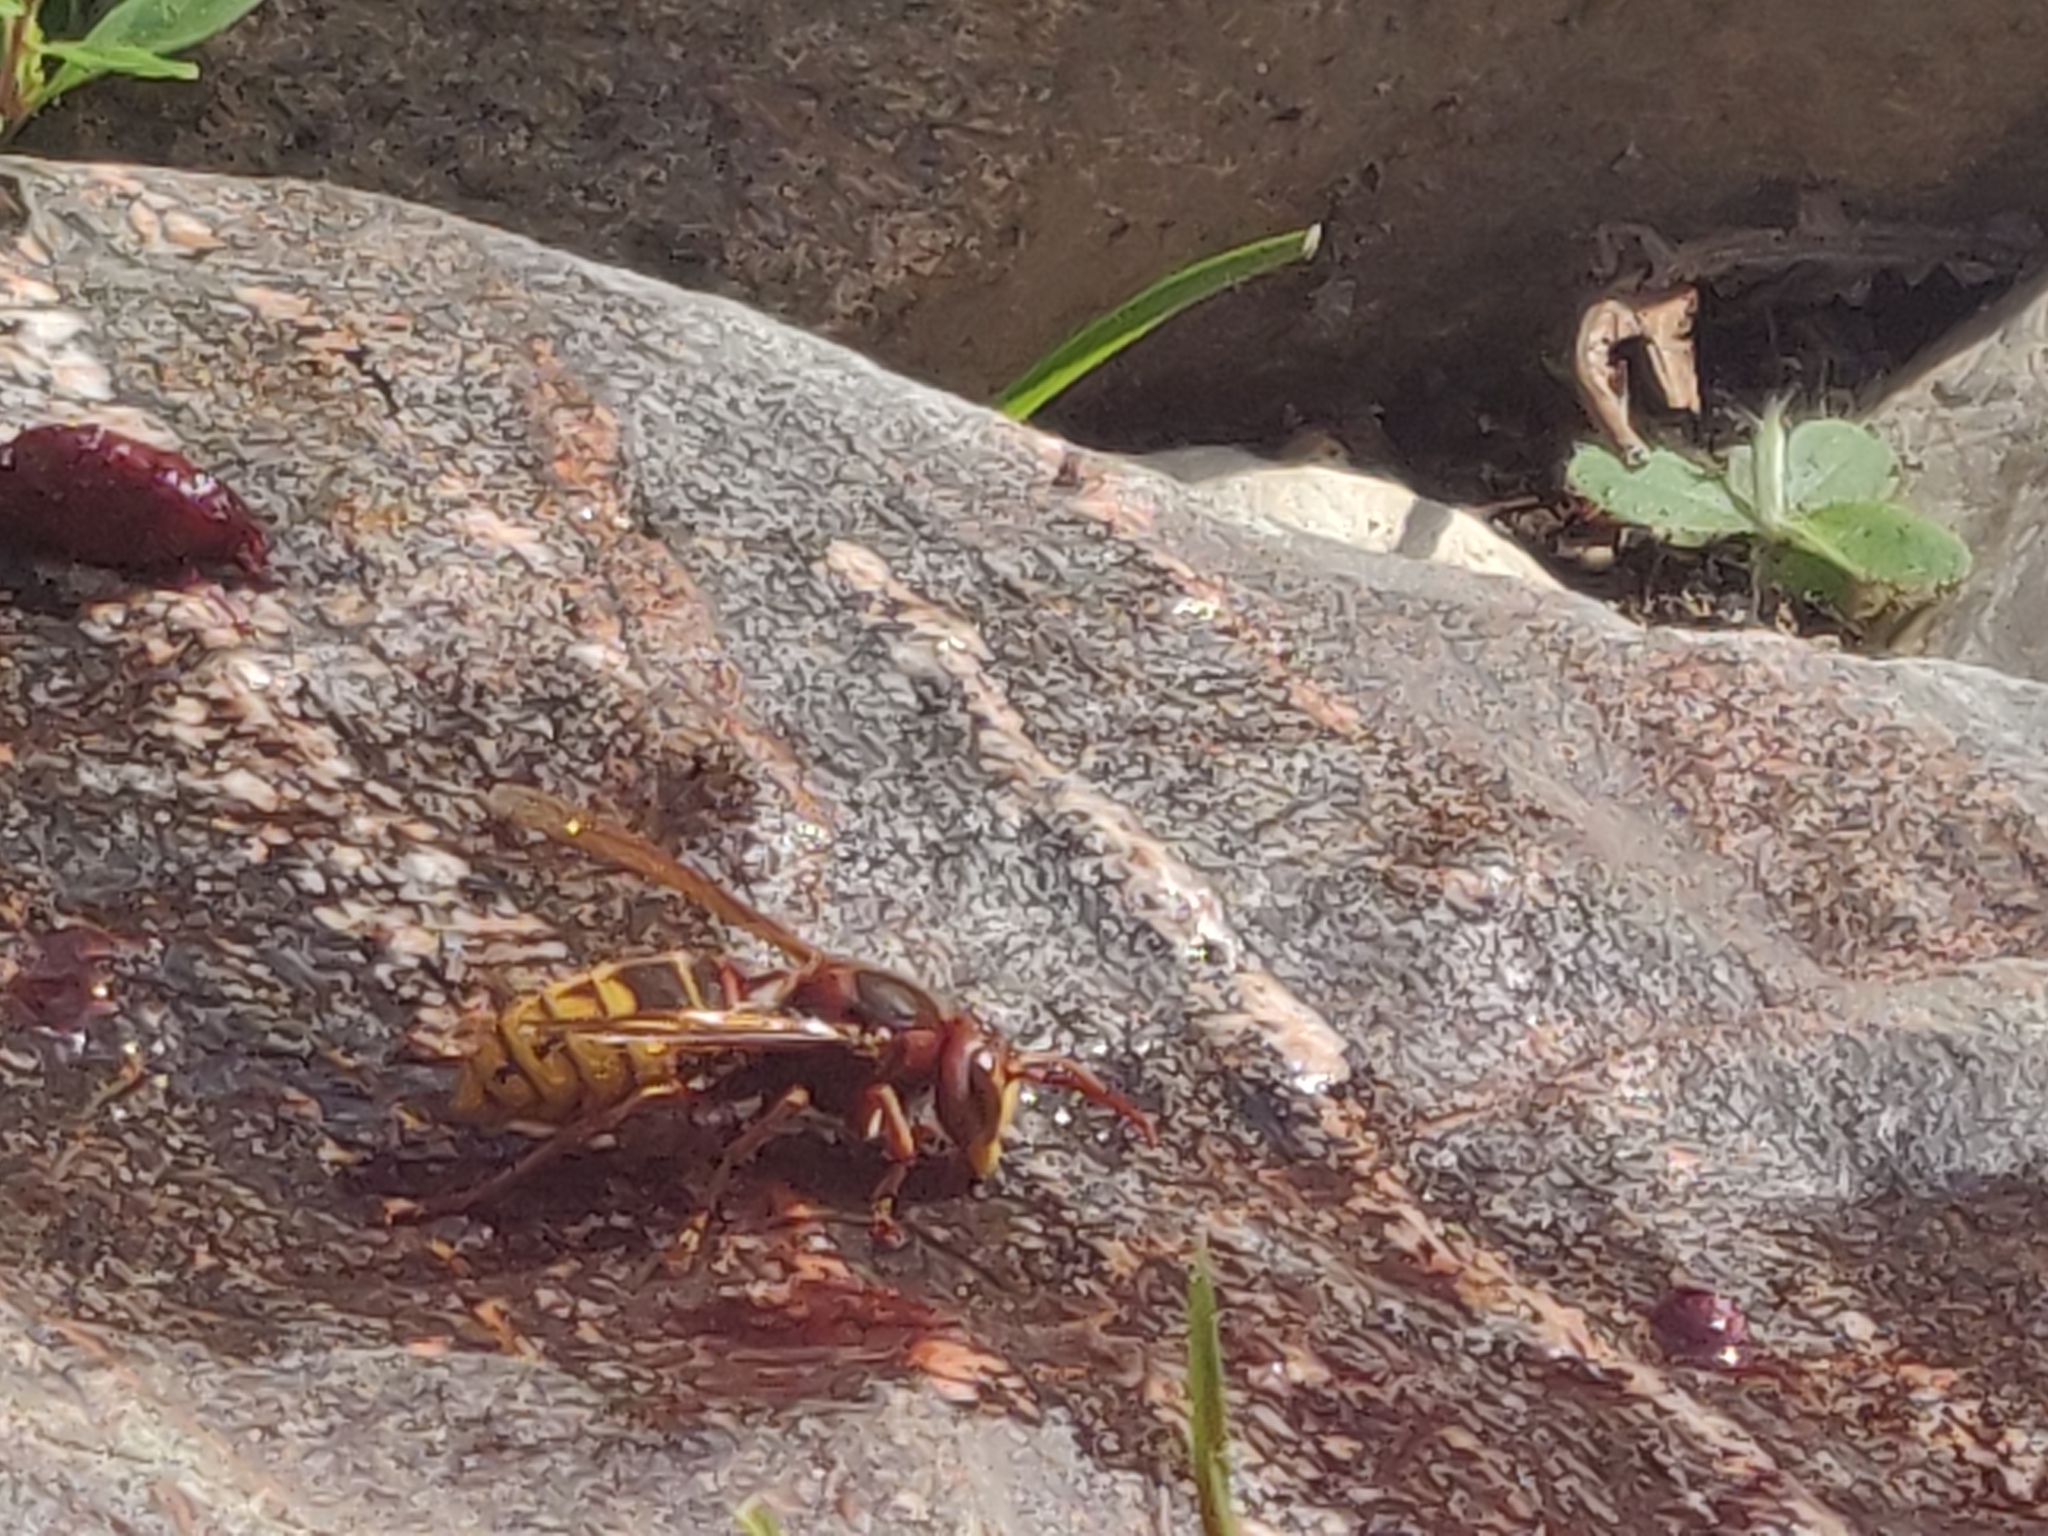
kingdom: Animalia
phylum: Arthropoda
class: Insecta
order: Hymenoptera
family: Vespidae
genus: Vespa
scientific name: Vespa crabro
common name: Hornet
